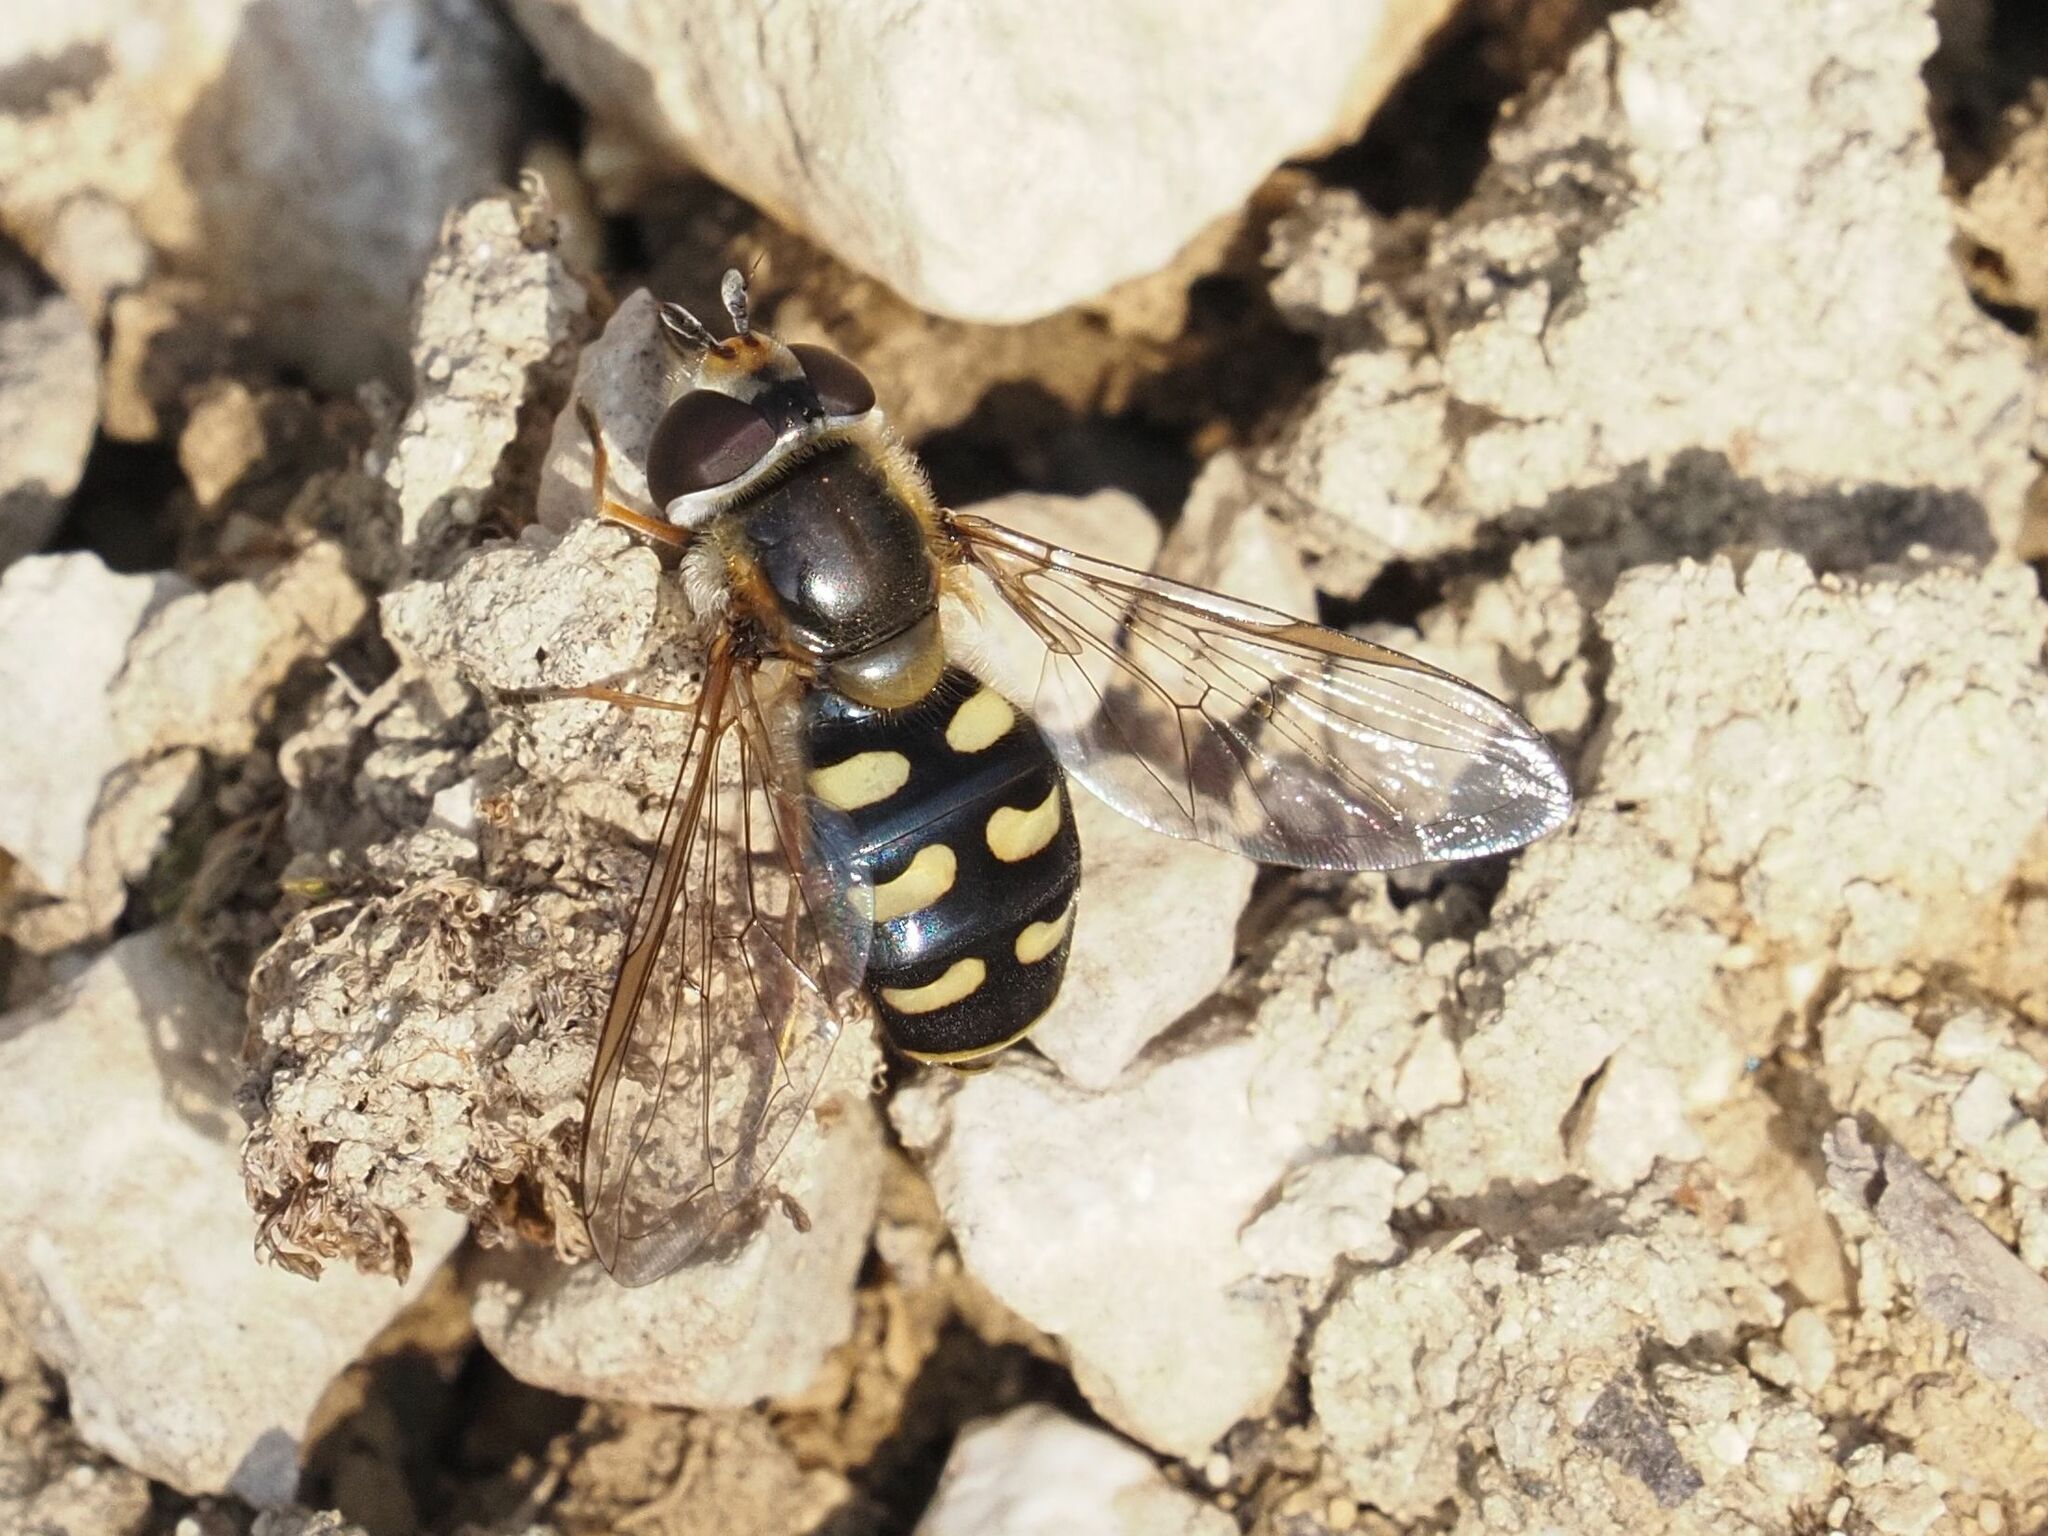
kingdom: Animalia
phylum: Arthropoda
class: Insecta
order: Diptera
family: Syrphidae
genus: Eupeodes
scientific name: Eupeodes luniger
